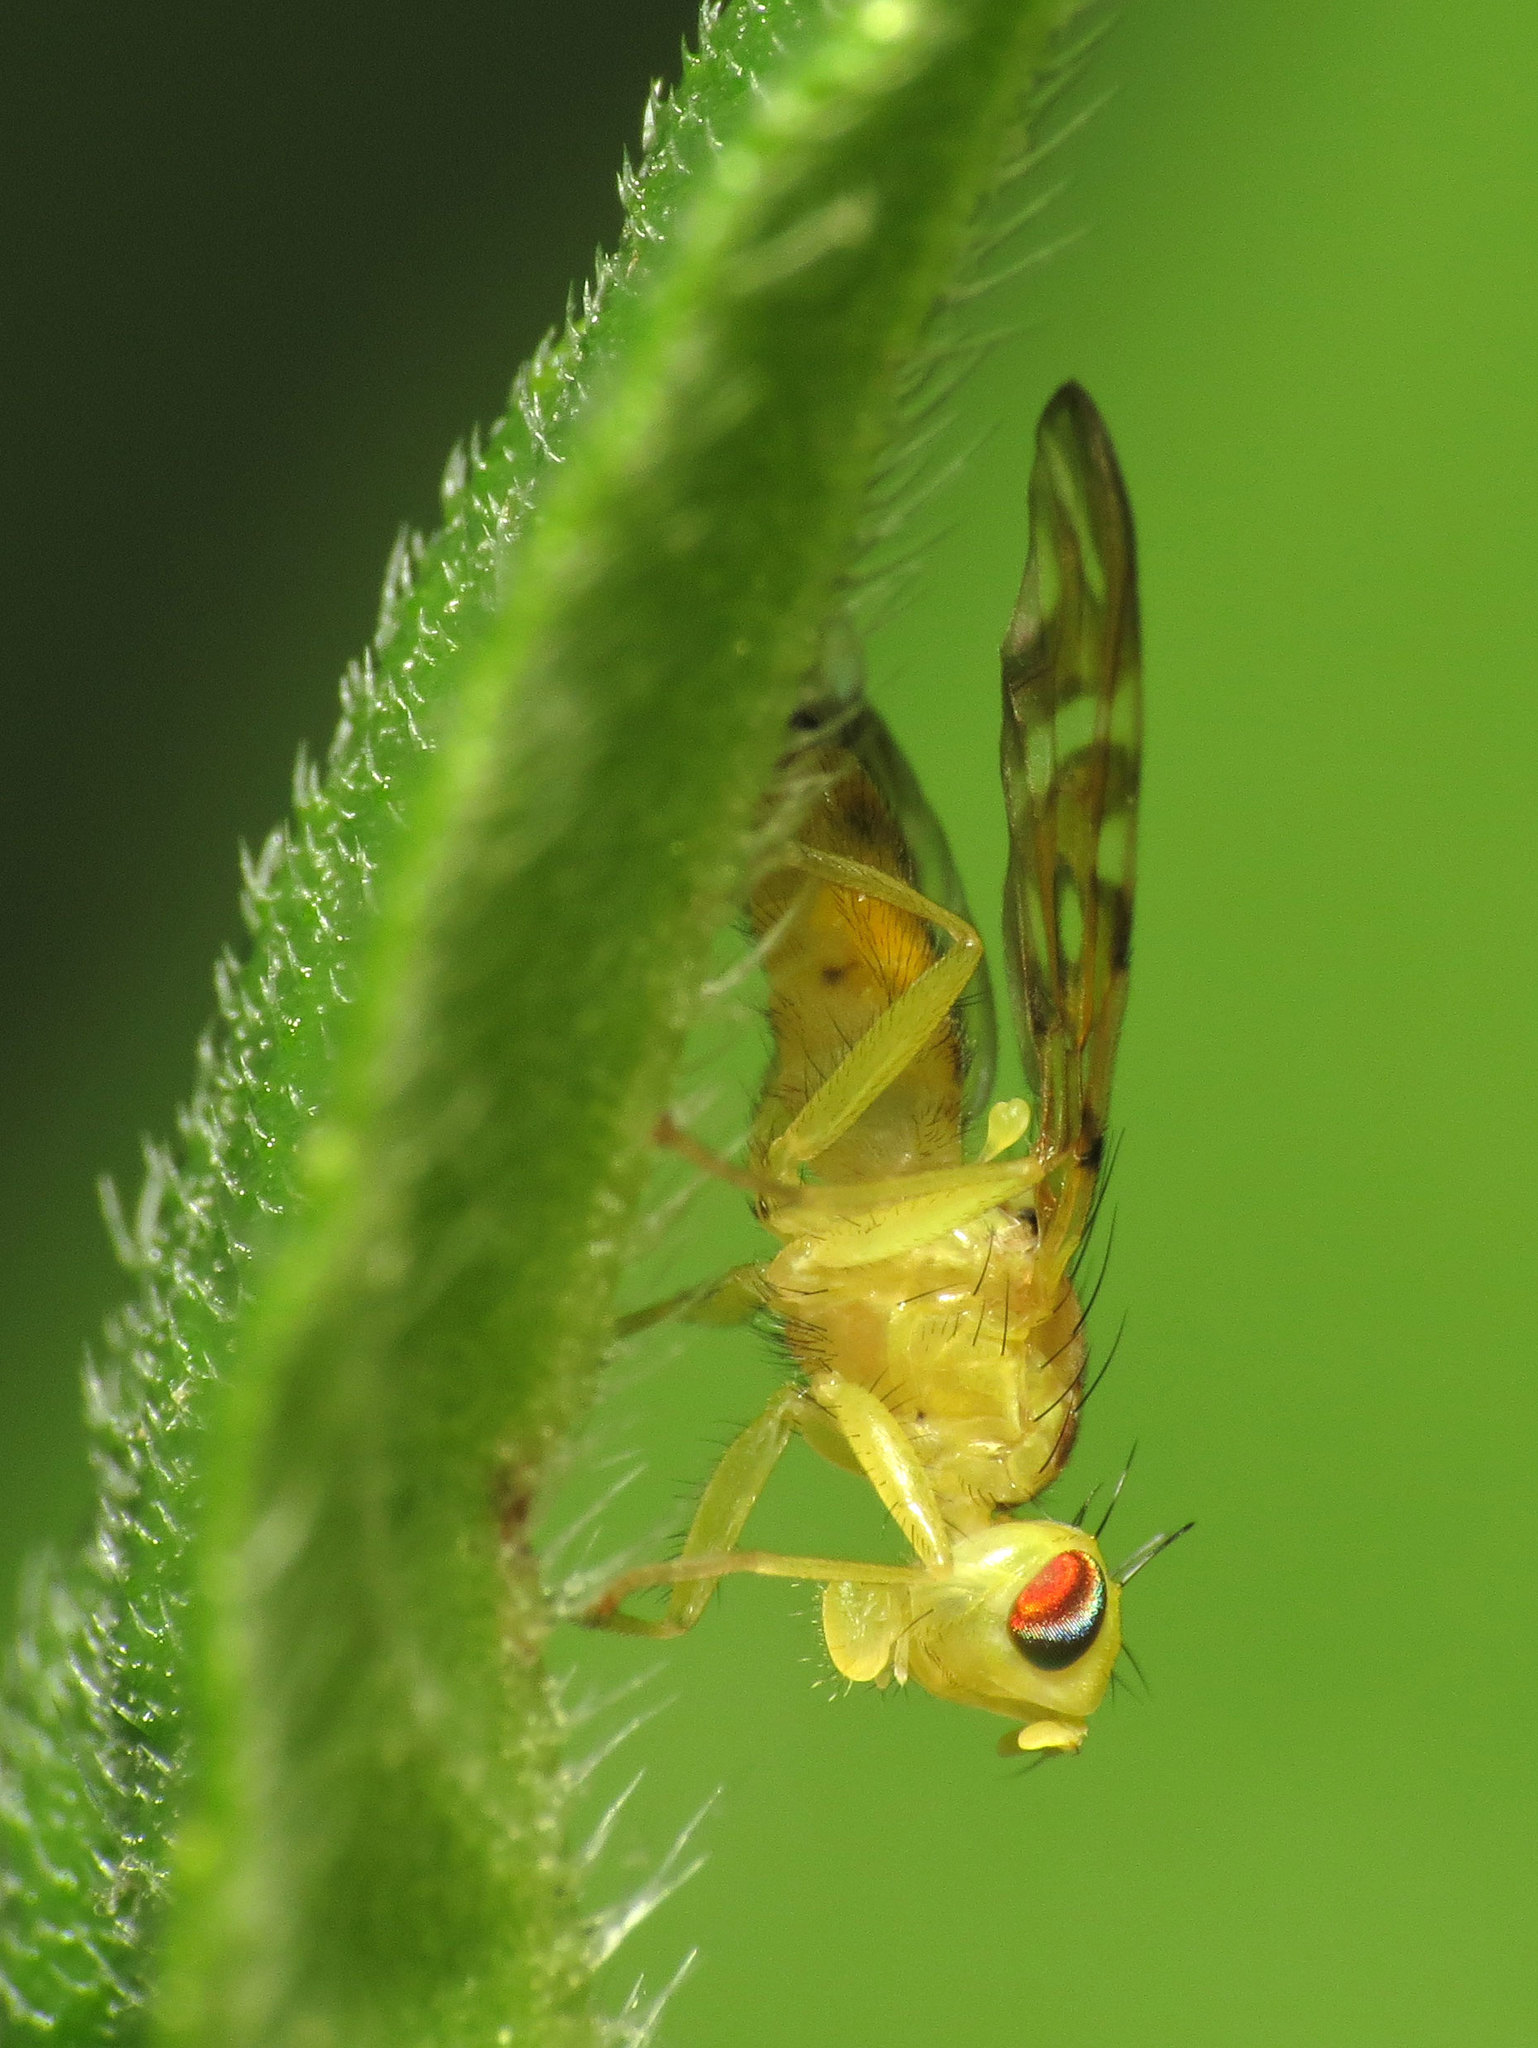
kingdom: Animalia
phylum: Arthropoda
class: Insecta
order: Diptera
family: Tephritidae
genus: Strauzia
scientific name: Strauzia longitudinalis
